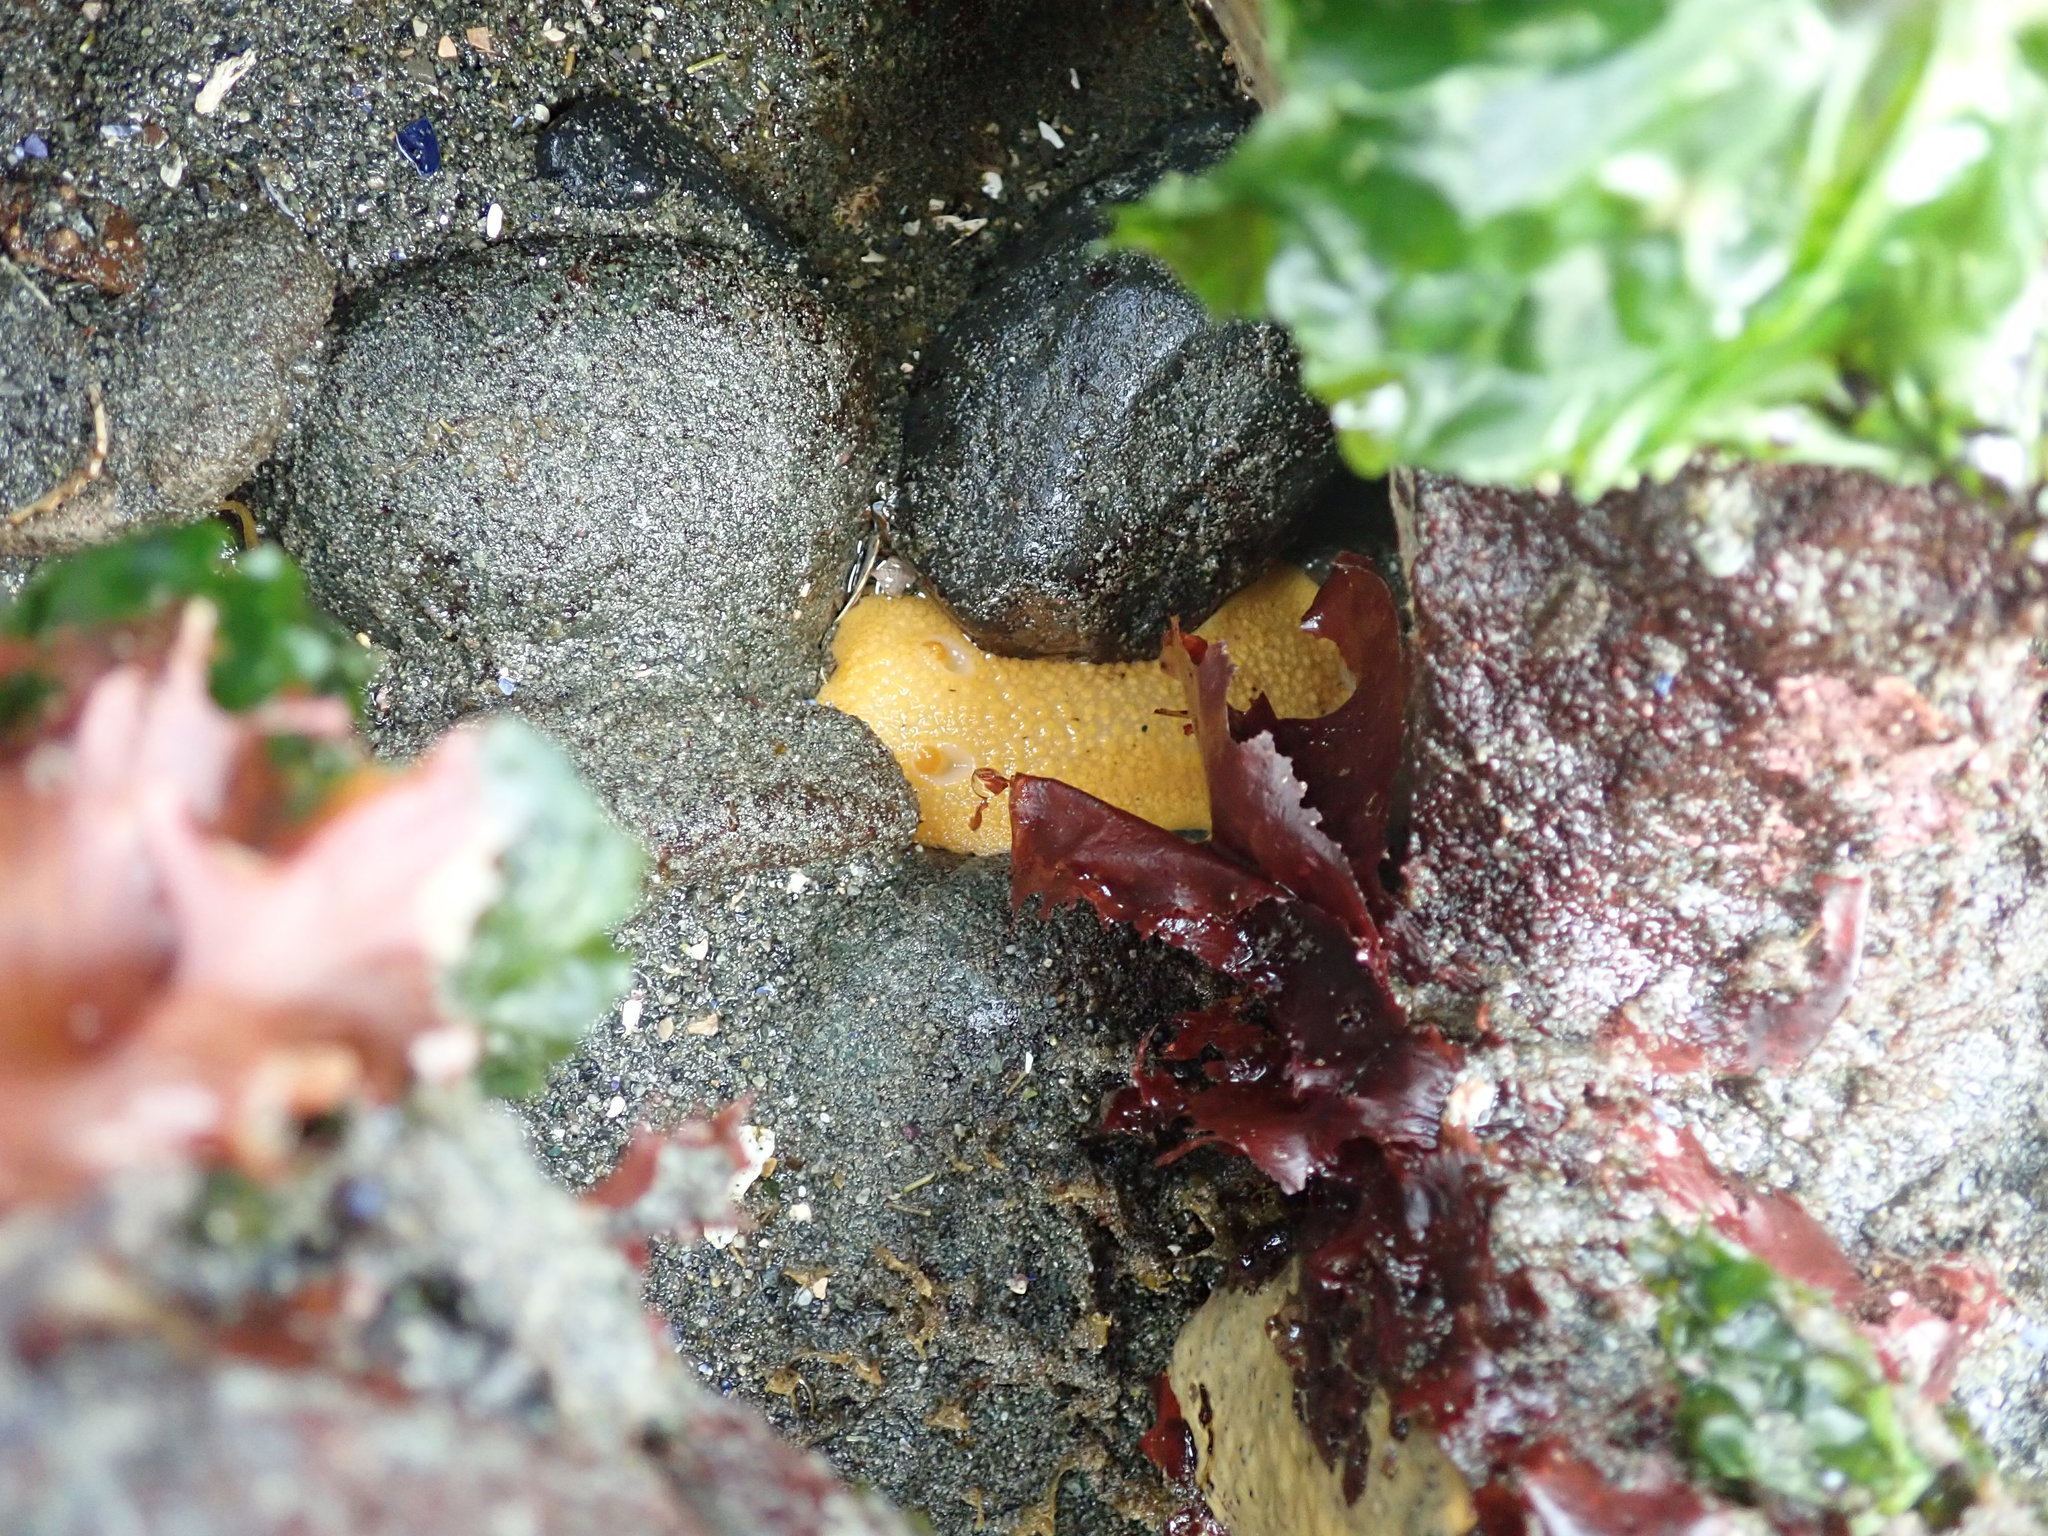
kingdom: Animalia
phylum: Mollusca
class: Gastropoda
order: Nudibranchia
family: Discodorididae
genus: Peltodoris
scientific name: Peltodoris nobilis
